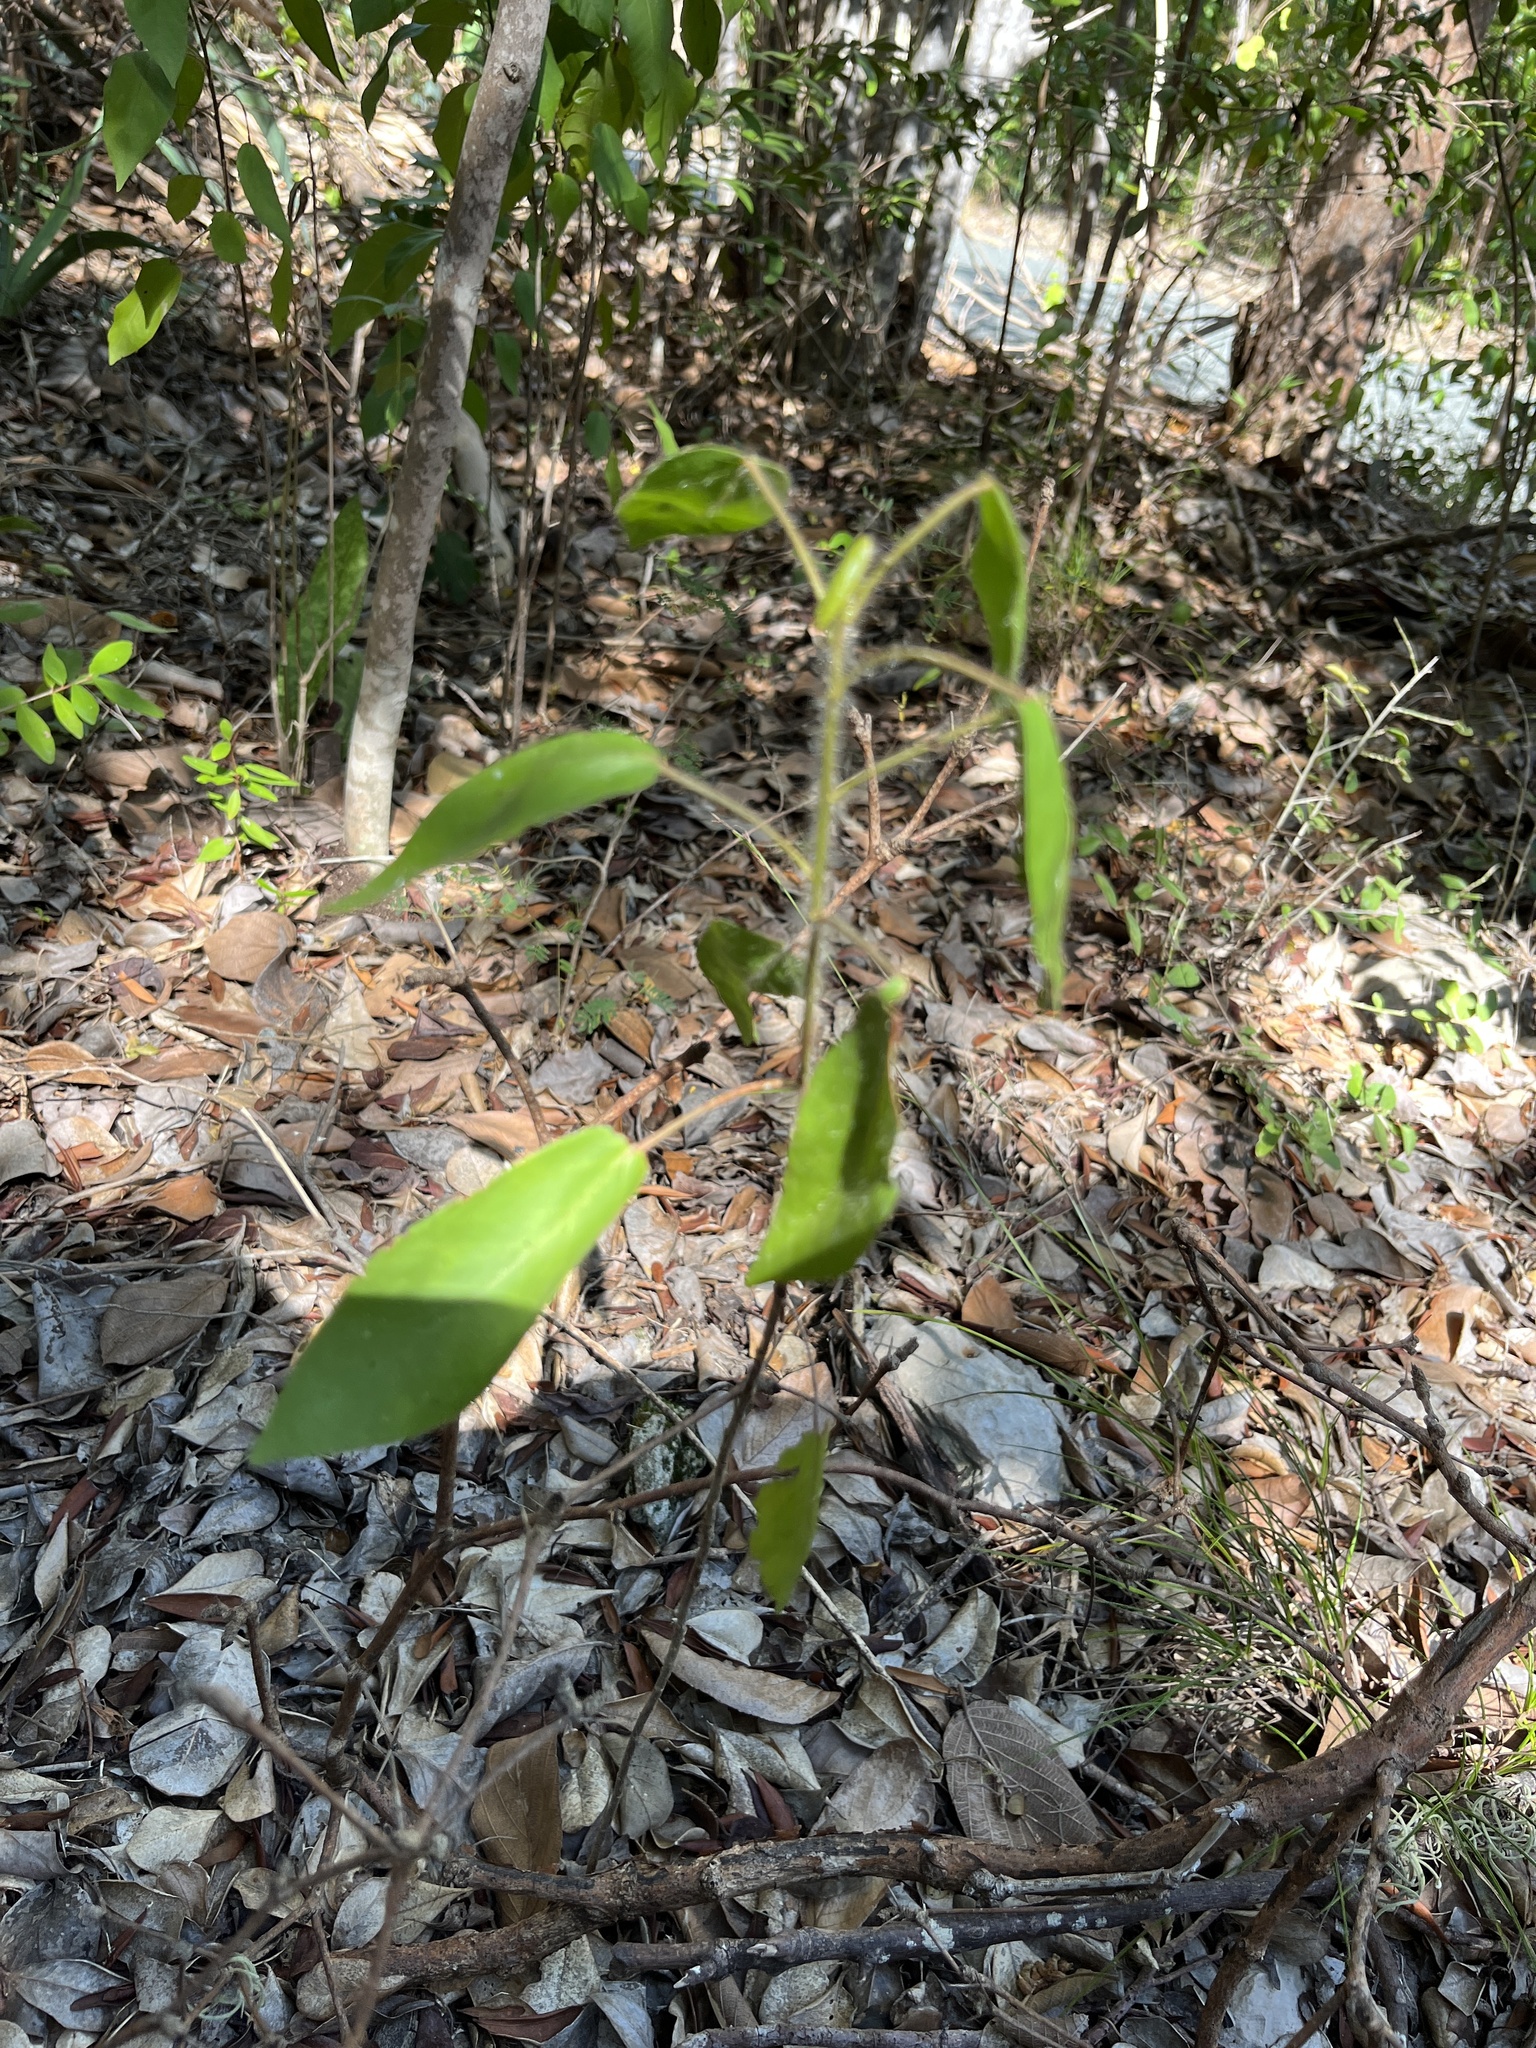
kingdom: Plantae
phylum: Tracheophyta
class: Magnoliopsida
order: Malpighiales
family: Euphorbiaceae
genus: Croton
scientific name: Croton glabellus
